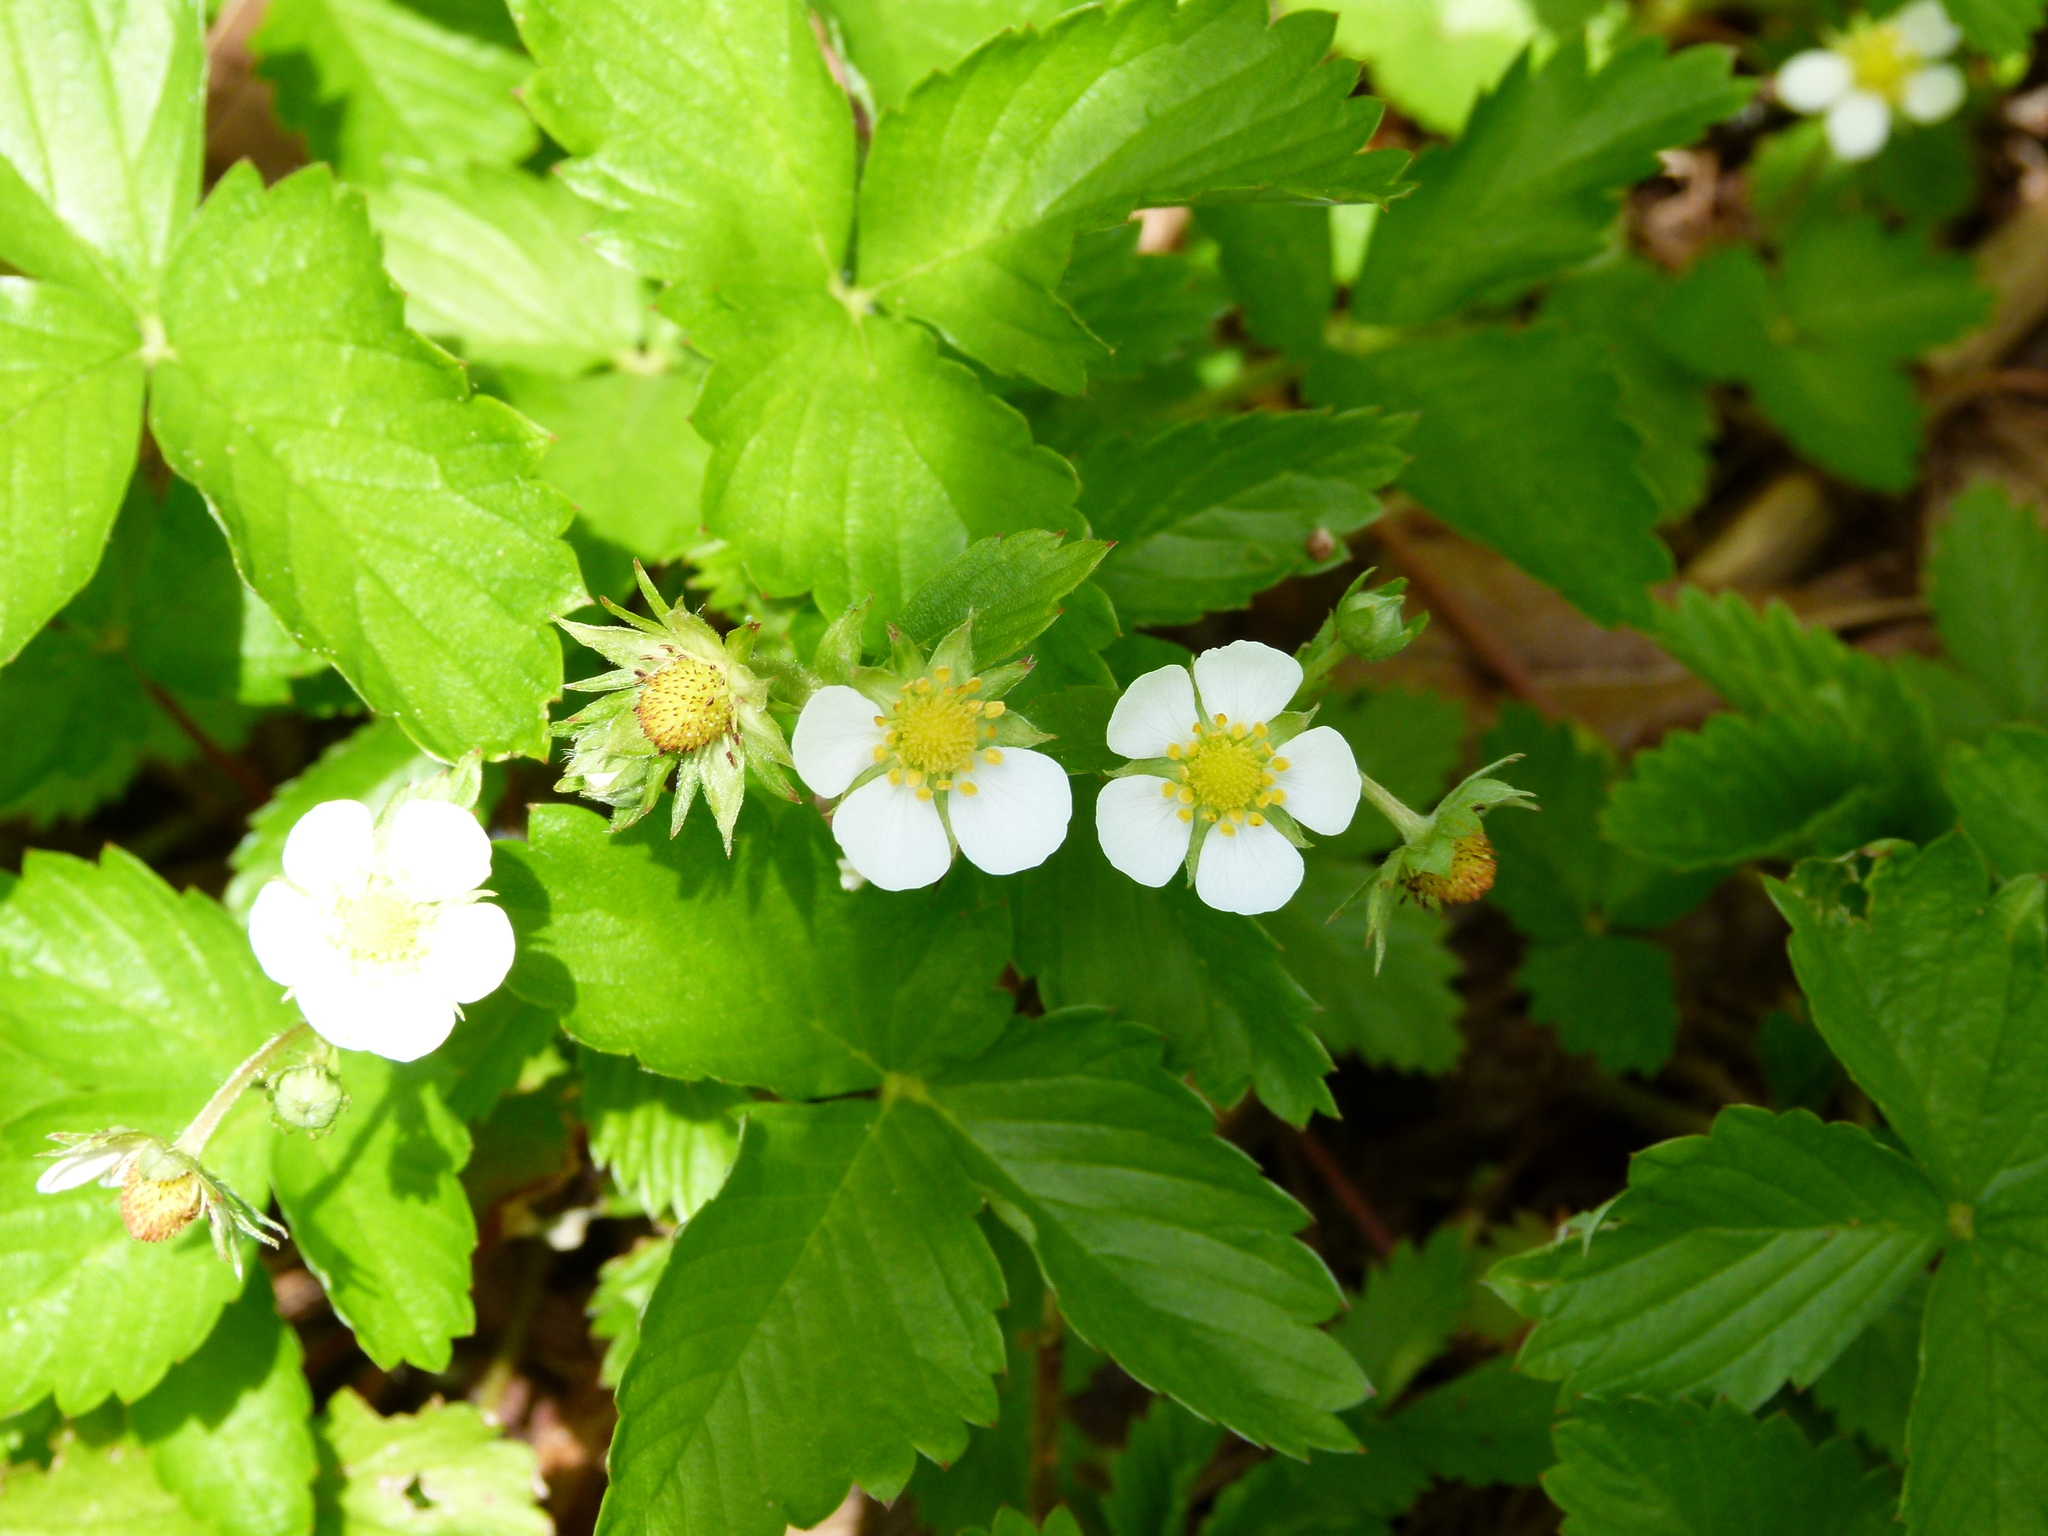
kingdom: Plantae
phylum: Tracheophyta
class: Magnoliopsida
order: Rosales
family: Rosaceae
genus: Fragaria
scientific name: Fragaria vesca
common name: Wild strawberry
